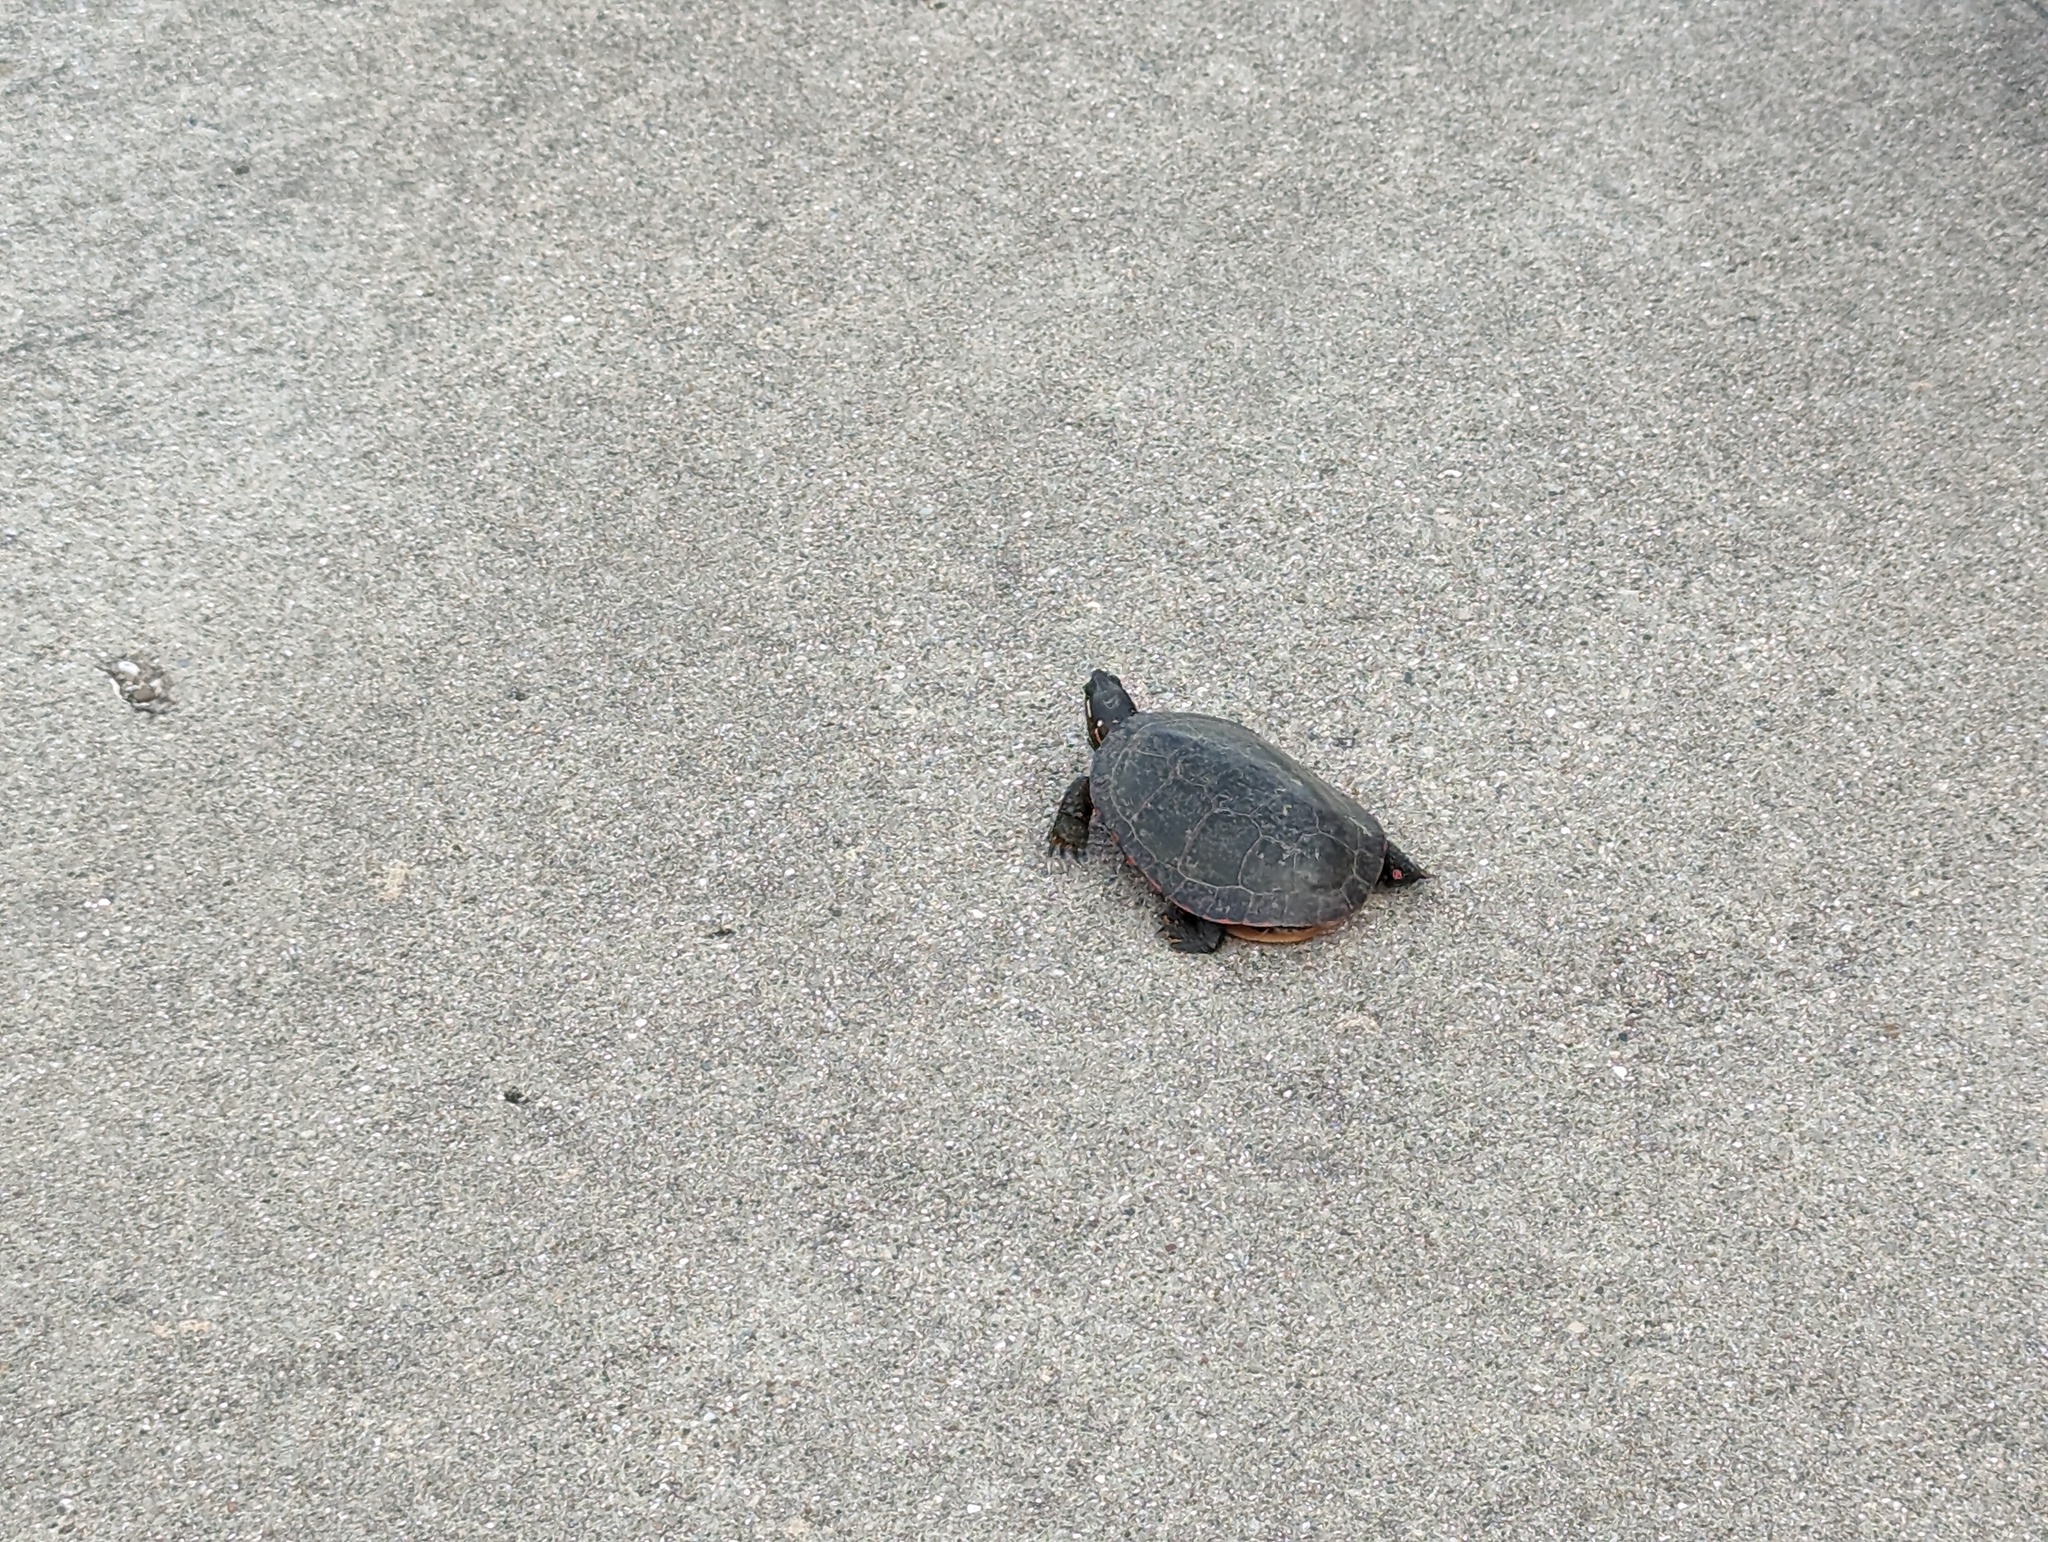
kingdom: Animalia
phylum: Chordata
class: Testudines
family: Emydidae
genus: Chrysemys
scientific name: Chrysemys picta
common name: Painted turtle
